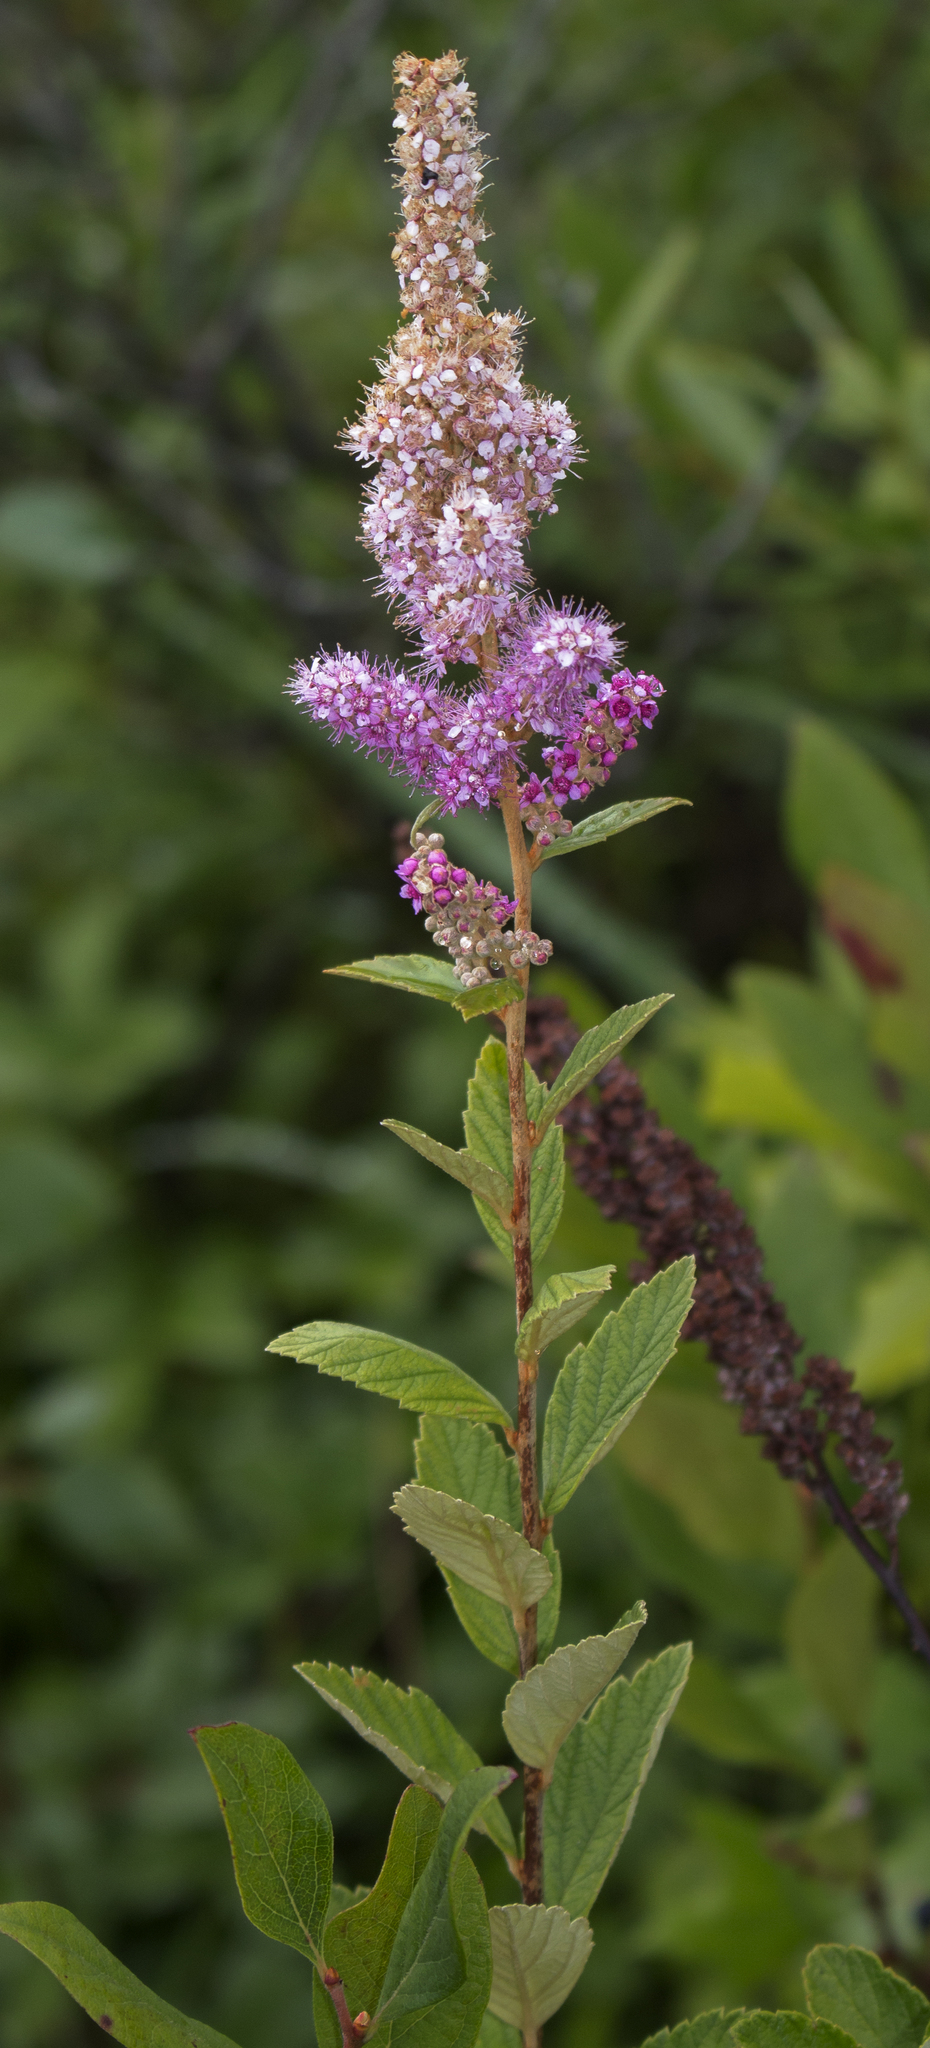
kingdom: Plantae
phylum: Tracheophyta
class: Magnoliopsida
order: Rosales
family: Rosaceae
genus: Spiraea
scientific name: Spiraea tomentosa
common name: Hardhack
